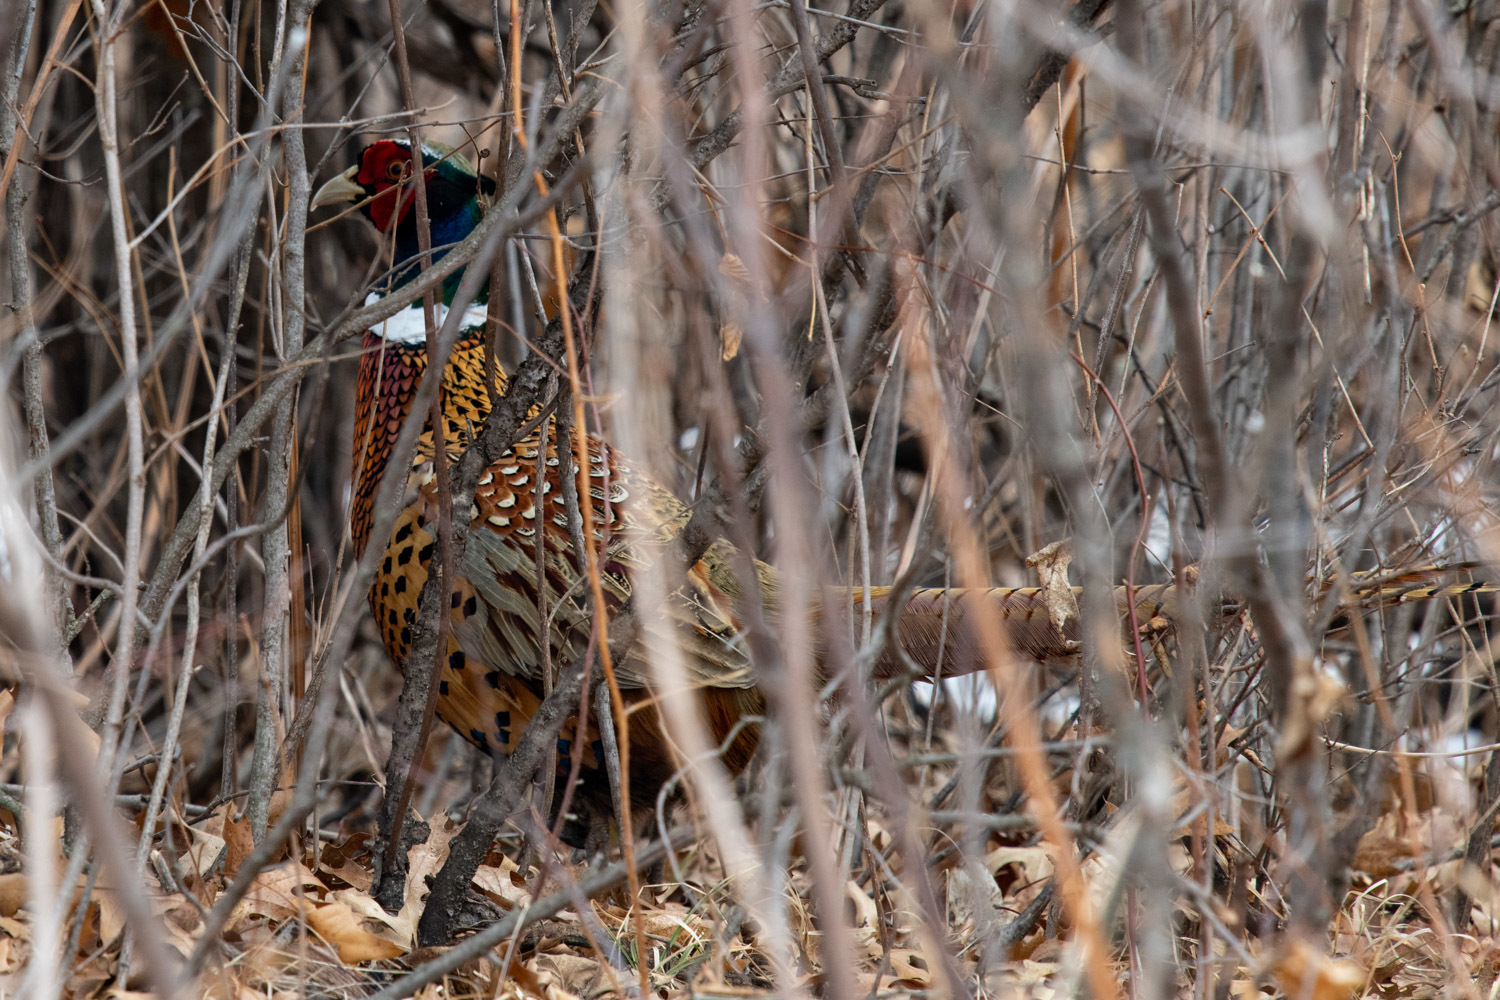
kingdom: Animalia
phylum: Chordata
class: Aves
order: Galliformes
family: Phasianidae
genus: Phasianus
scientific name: Phasianus colchicus
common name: Common pheasant
